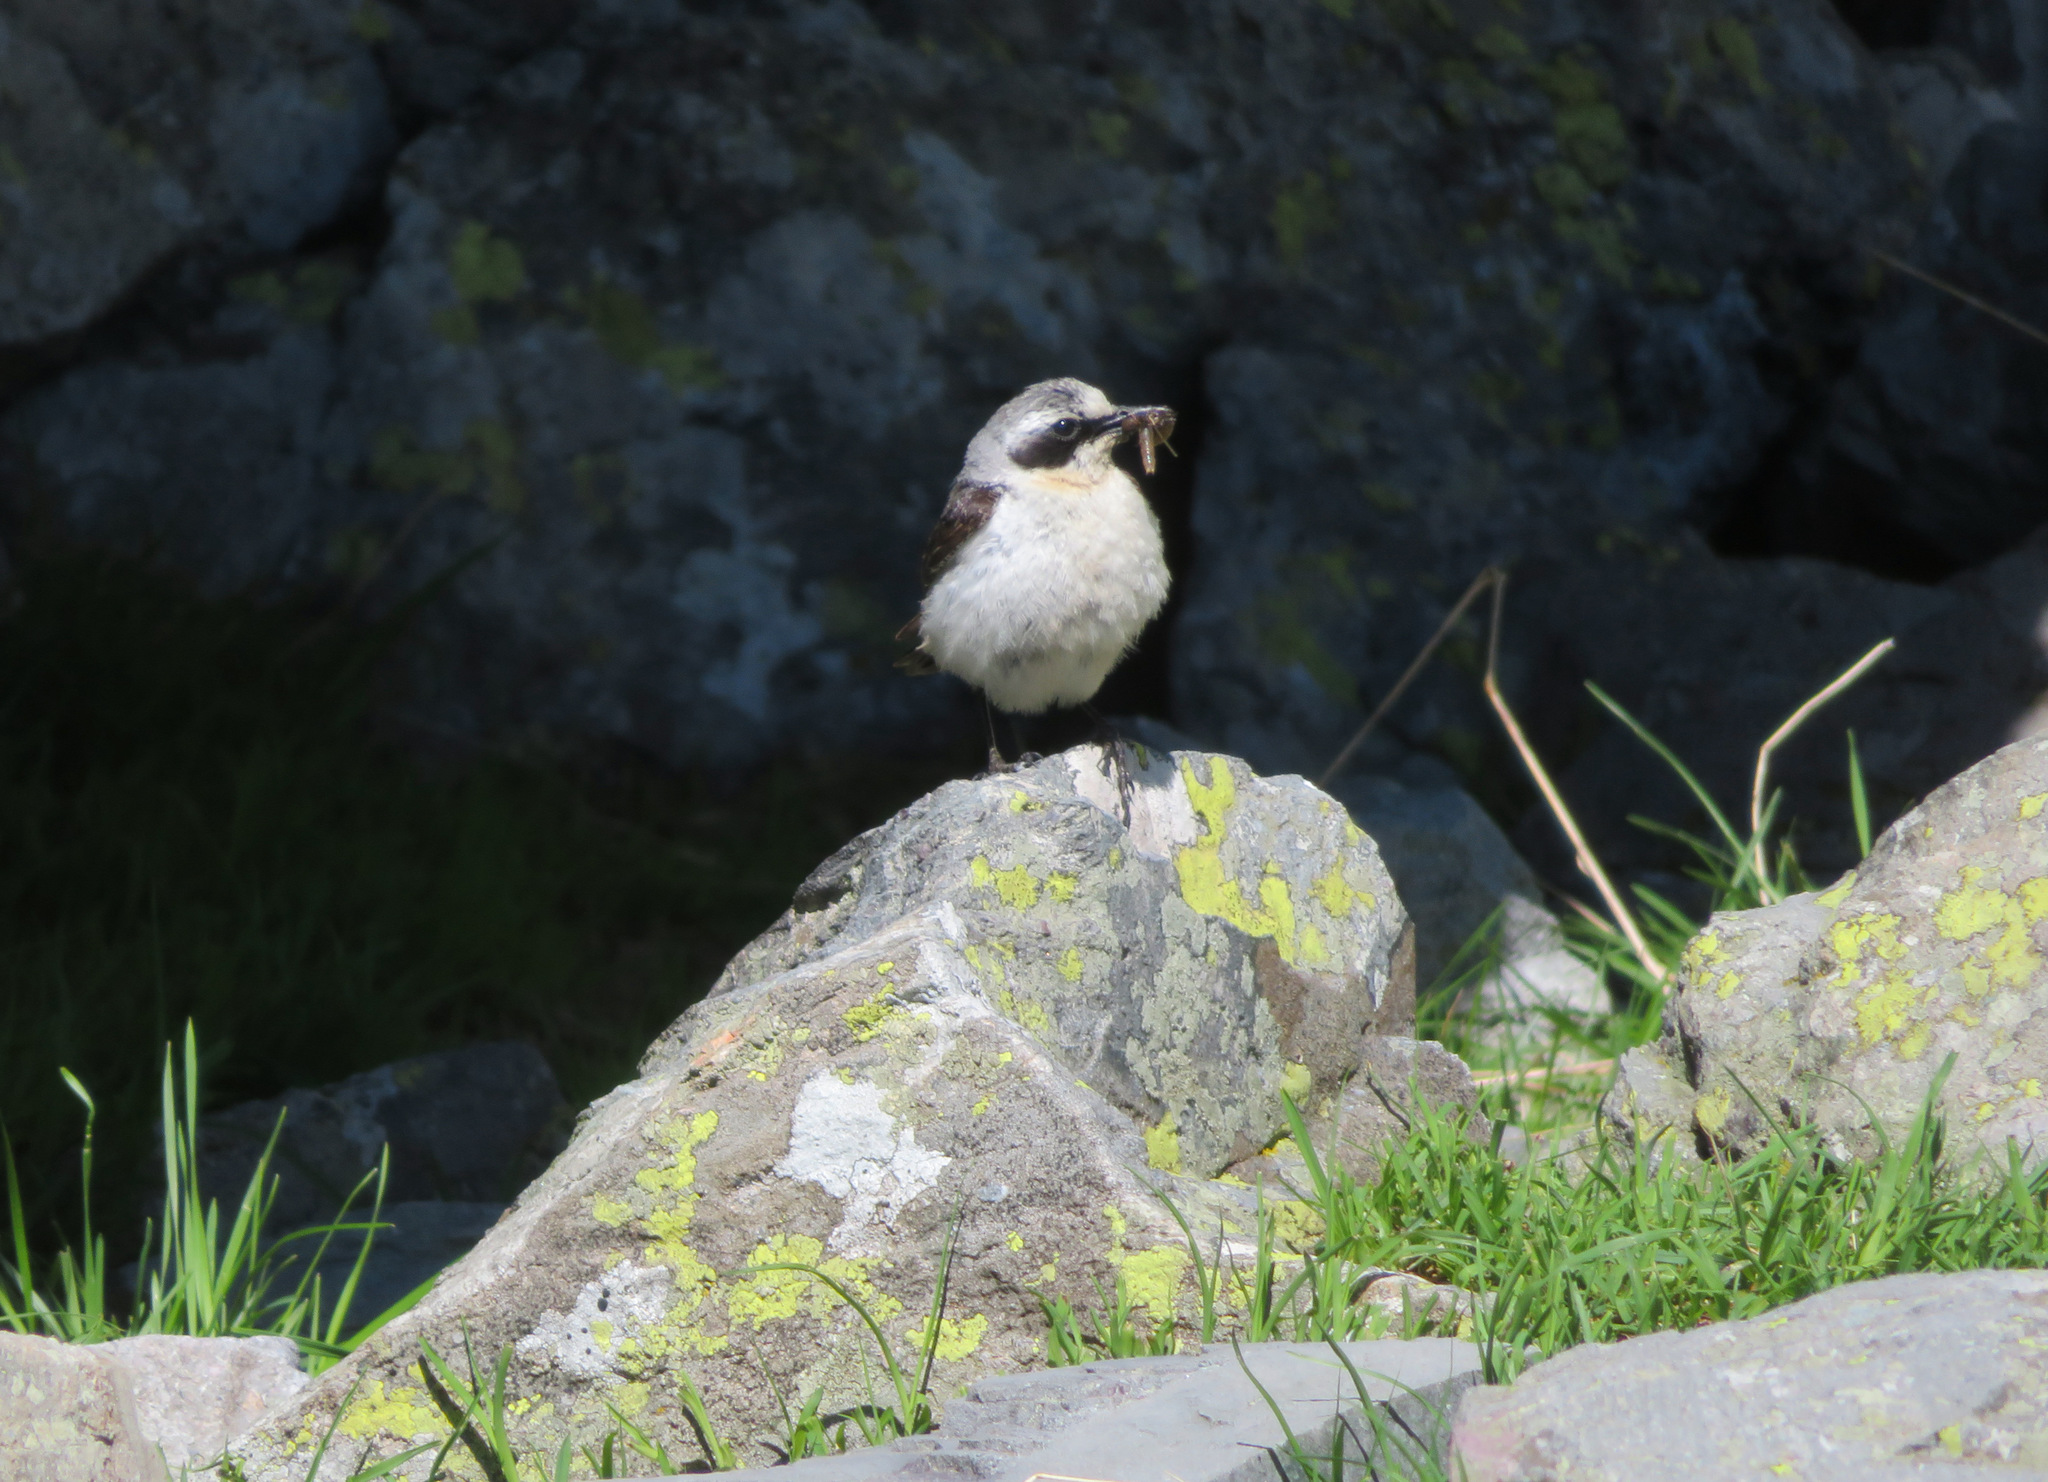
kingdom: Animalia
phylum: Chordata
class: Aves
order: Passeriformes
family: Muscicapidae
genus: Oenanthe
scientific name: Oenanthe oenanthe
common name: Northern wheatear
